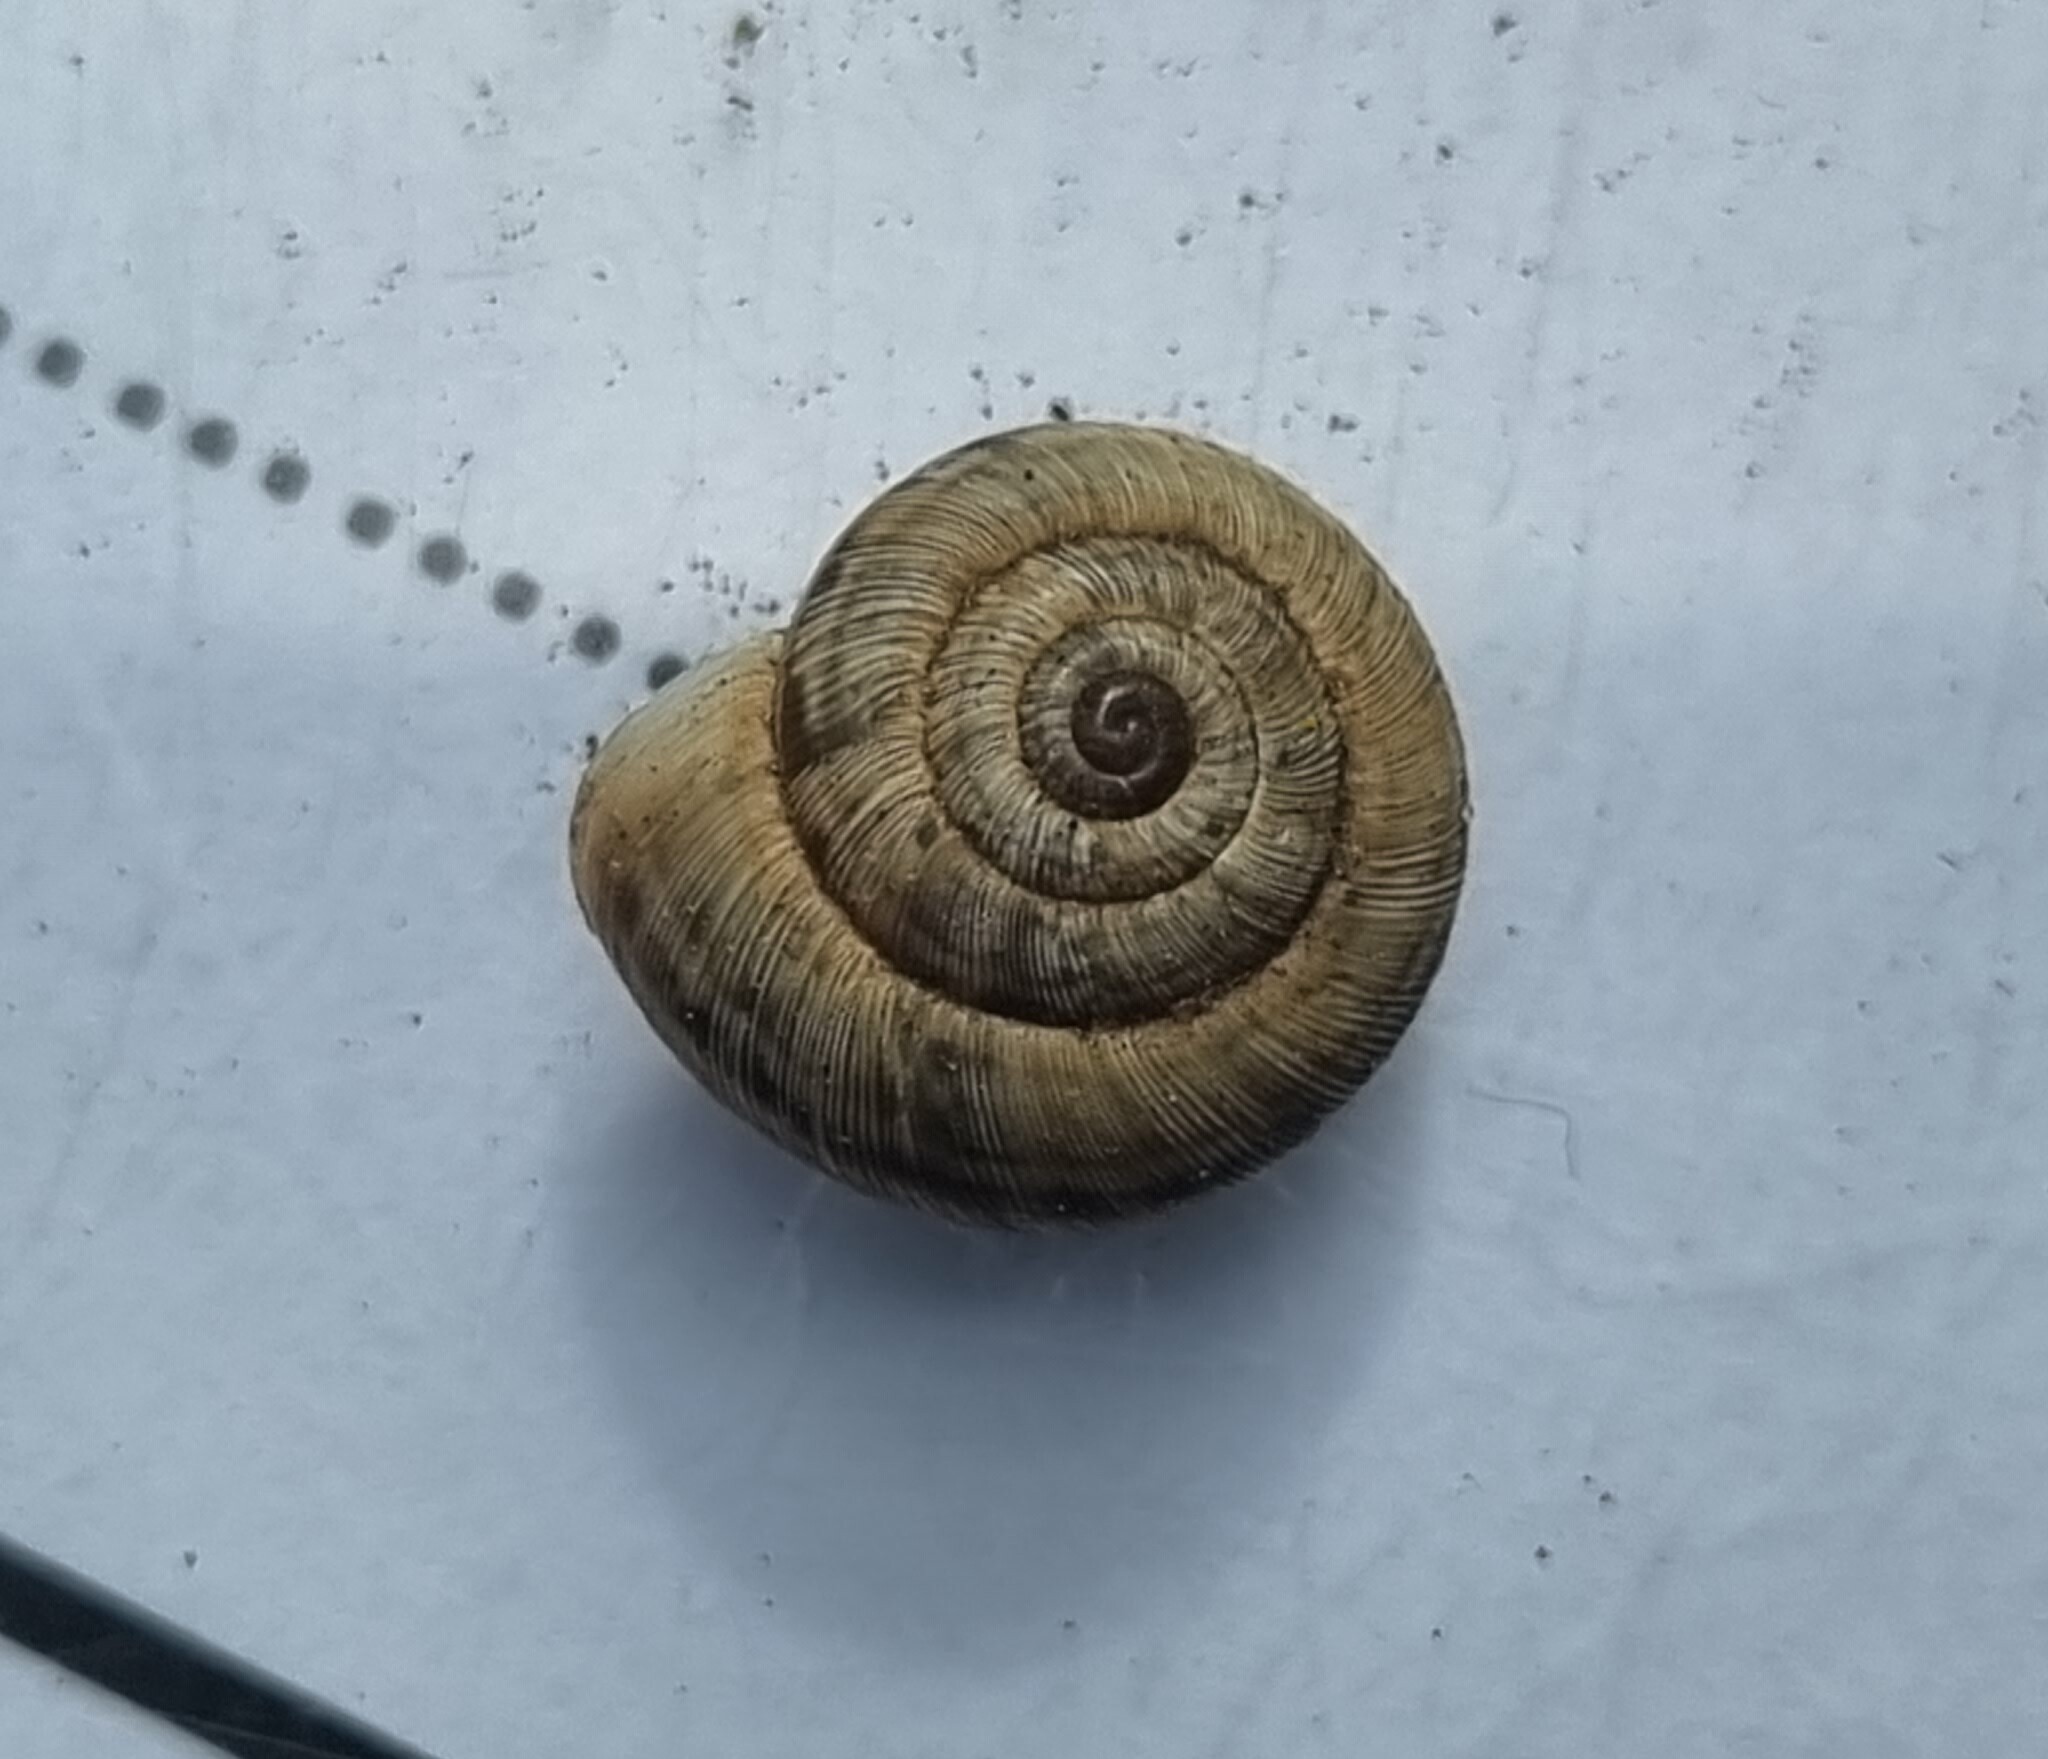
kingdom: Animalia
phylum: Mollusca
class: Gastropoda
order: Stylommatophora
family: Geomitridae
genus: Backeljaia
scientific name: Backeljaia gigaxii
